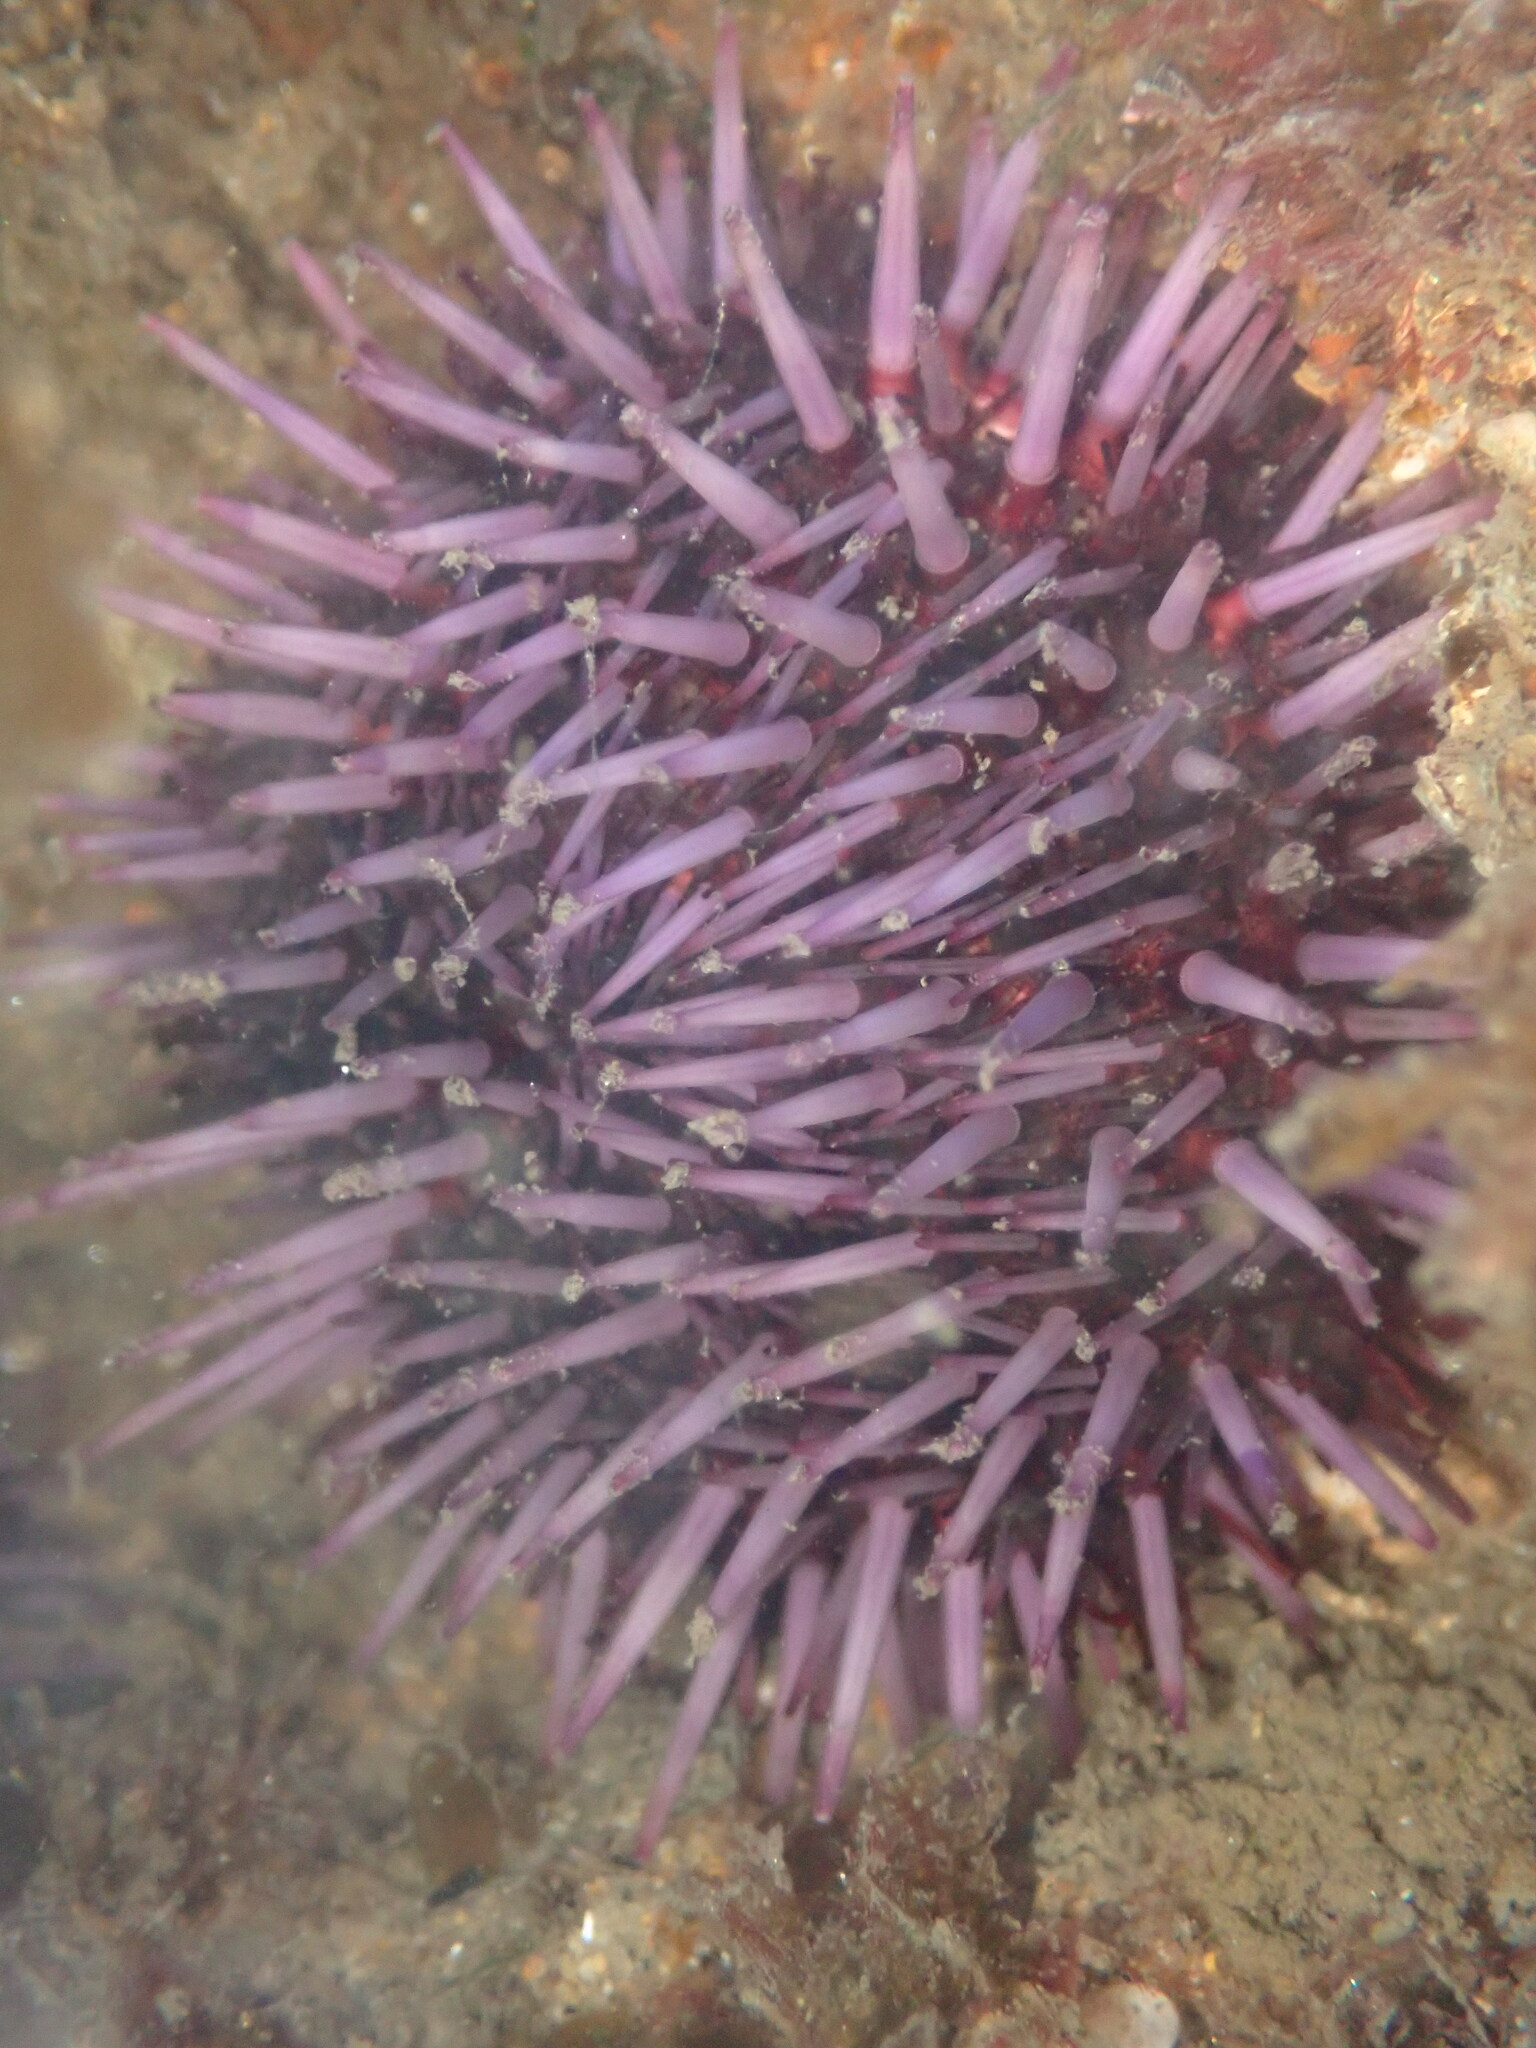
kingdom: Animalia
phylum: Echinodermata
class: Echinoidea
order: Camarodonta
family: Strongylocentrotidae
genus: Strongylocentrotus
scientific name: Strongylocentrotus purpuratus
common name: Purple sea urchin
